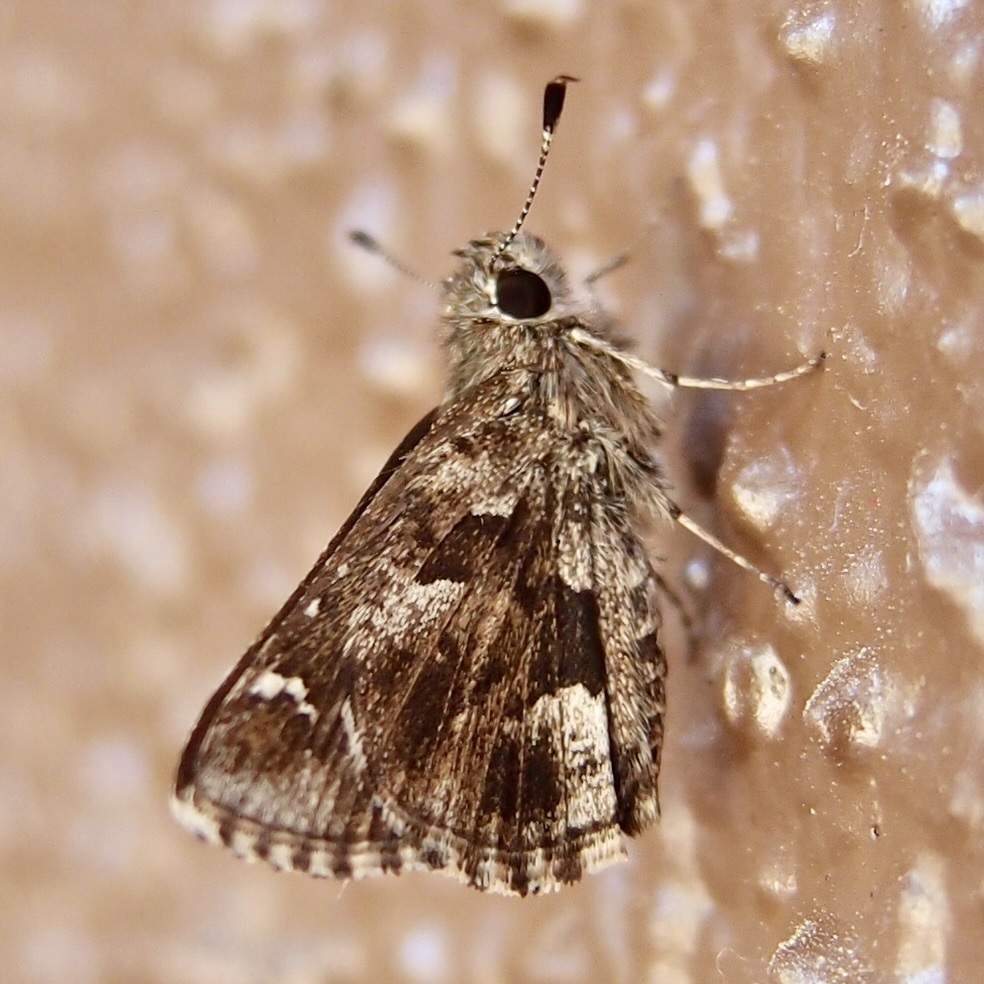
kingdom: Animalia
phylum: Arthropoda
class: Insecta
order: Lepidoptera
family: Hesperiidae
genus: Mastor
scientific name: Mastor nysa
